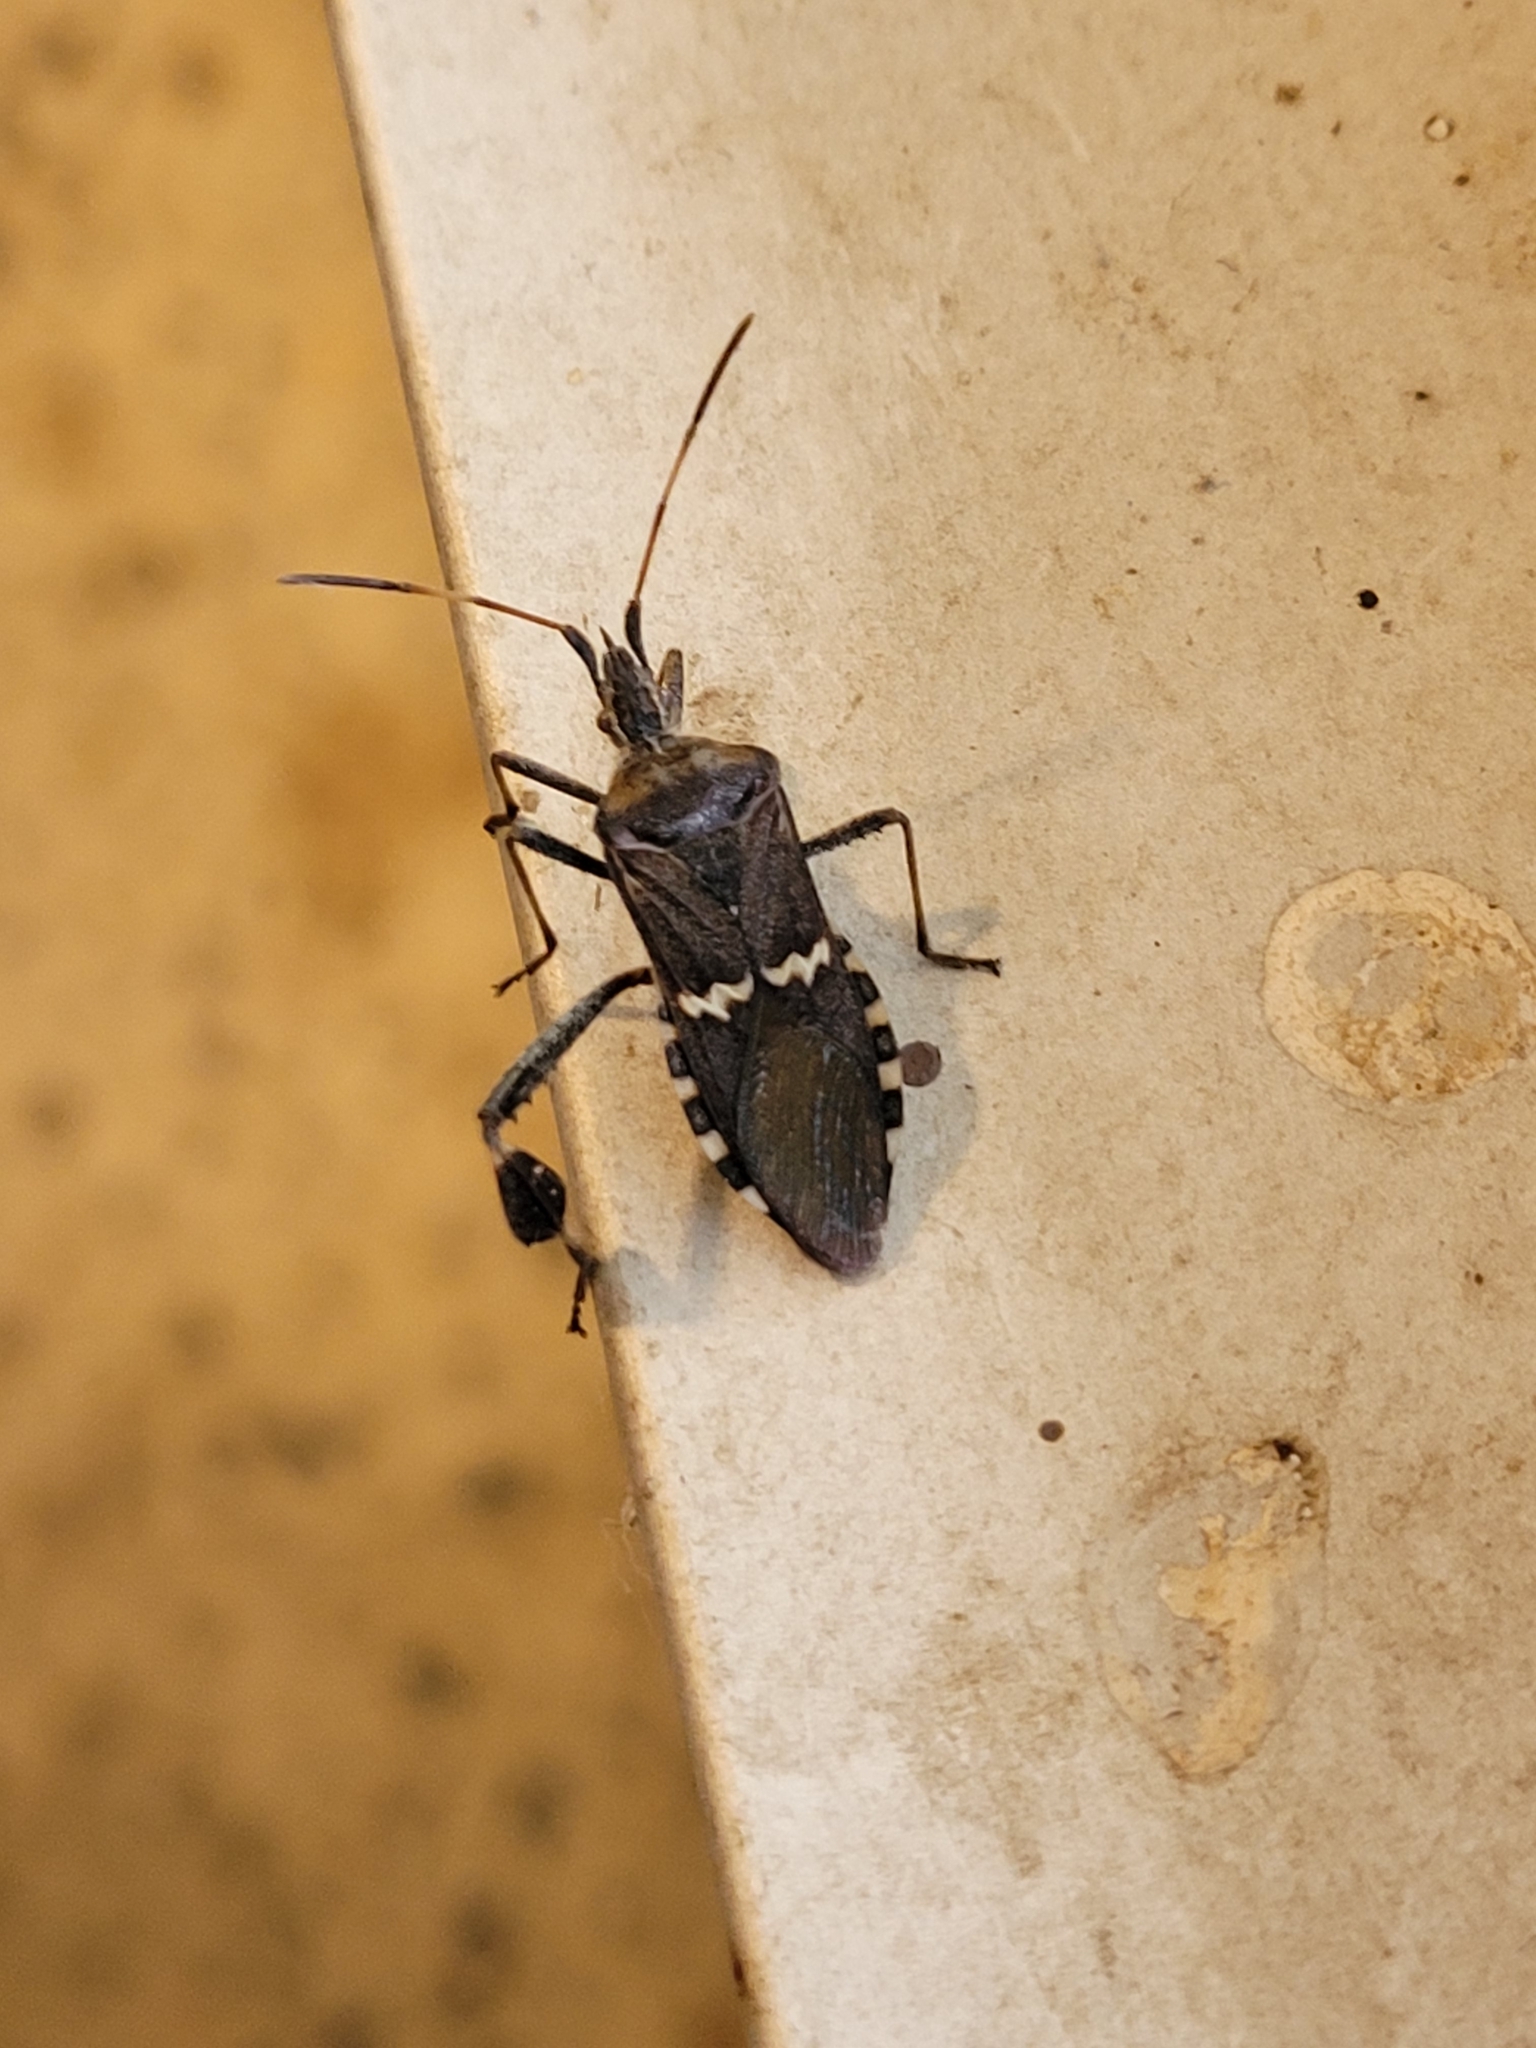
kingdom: Animalia
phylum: Arthropoda
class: Insecta
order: Hemiptera
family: Coreidae
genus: Leptoglossus
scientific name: Leptoglossus clypealis
